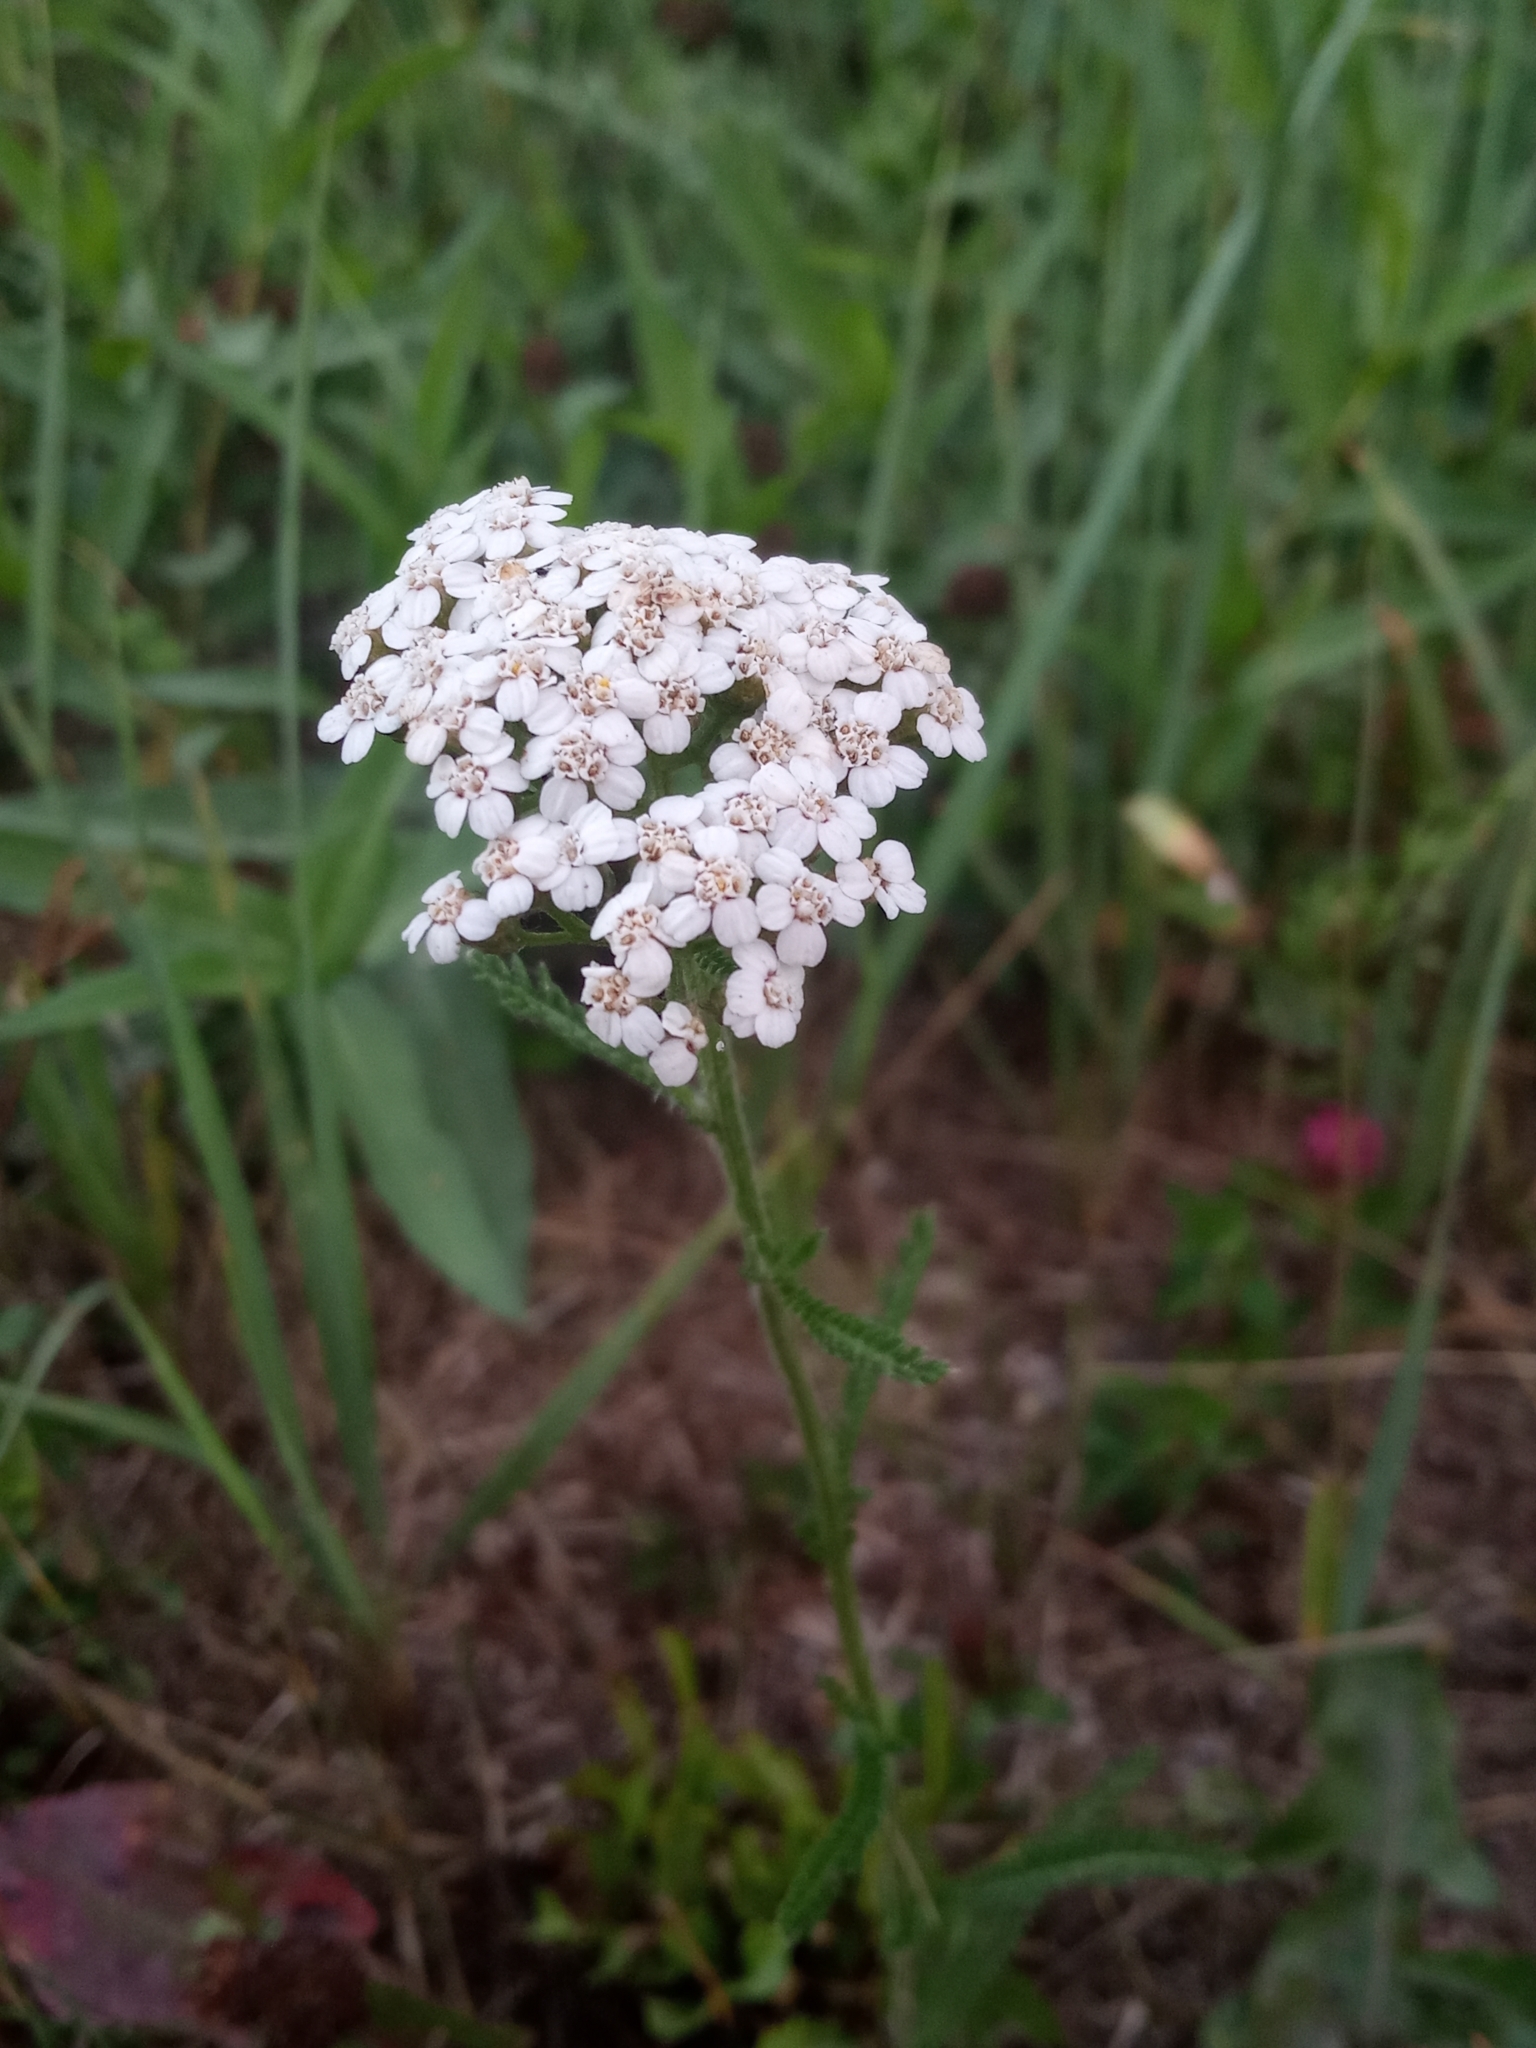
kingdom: Plantae
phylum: Tracheophyta
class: Magnoliopsida
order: Asterales
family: Asteraceae
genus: Achillea
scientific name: Achillea millefolium
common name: Yarrow
